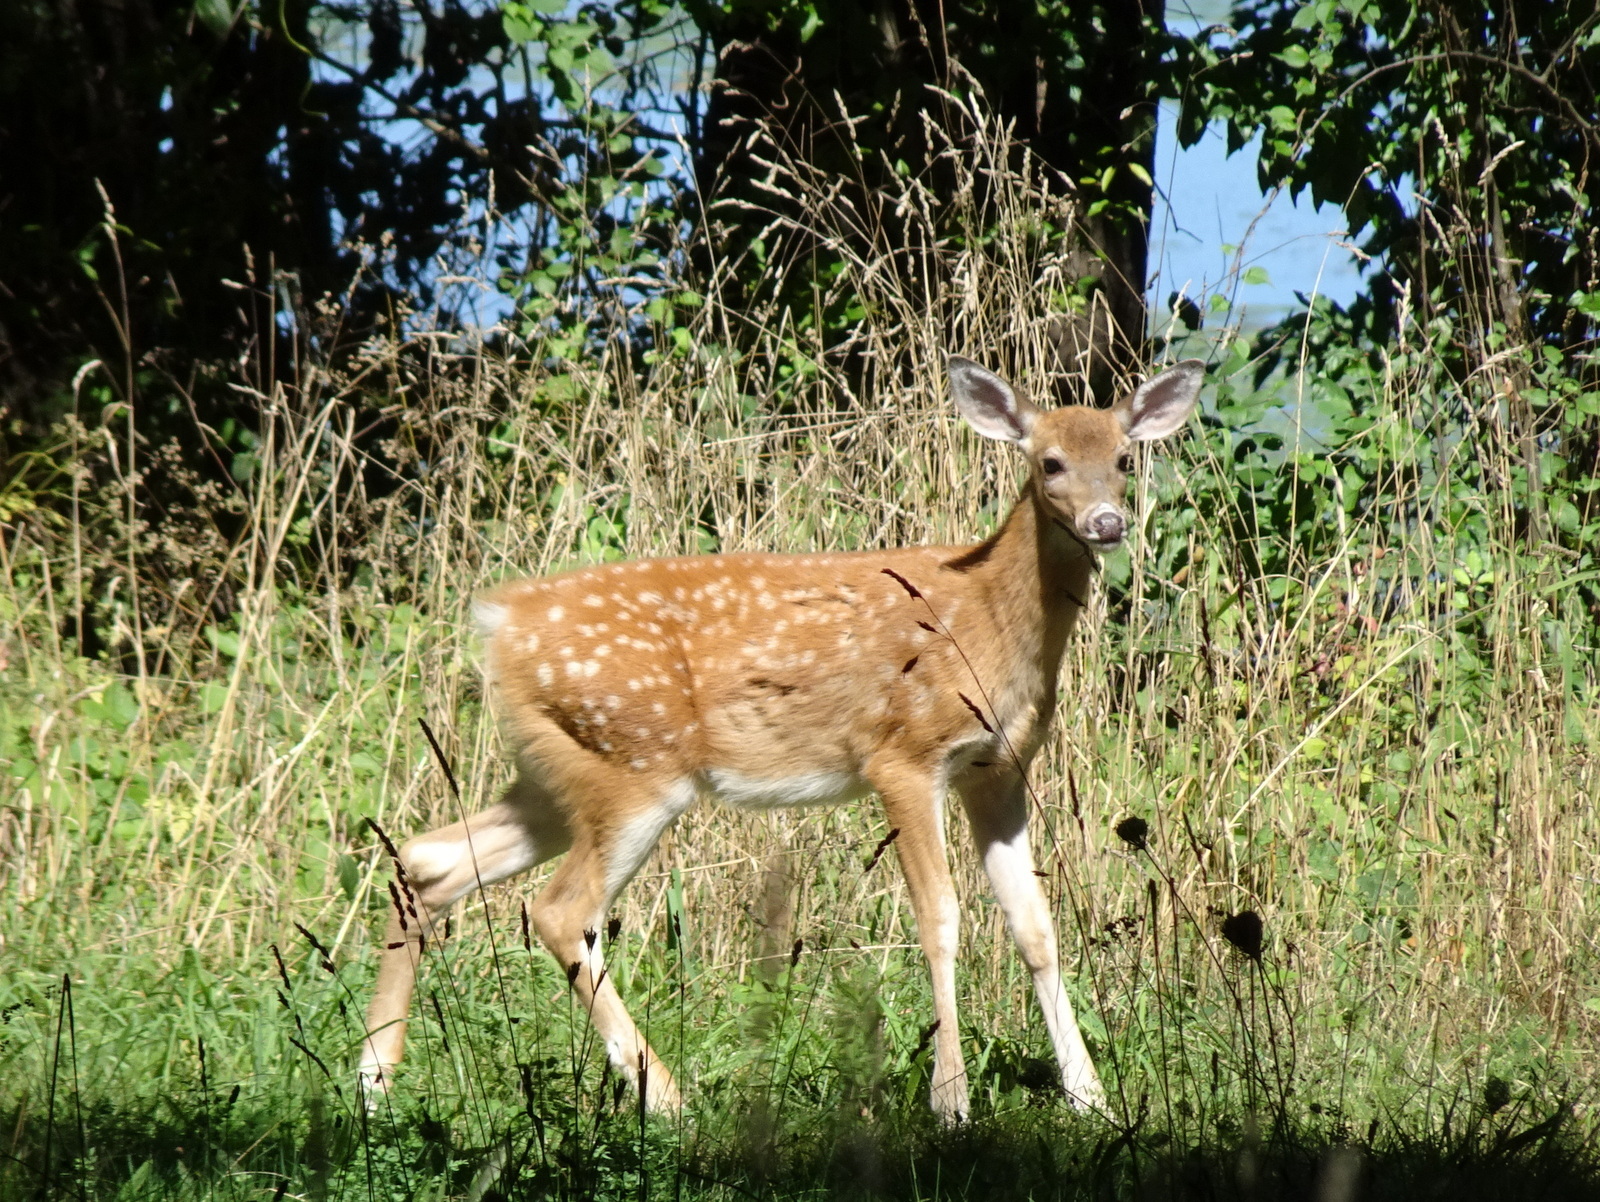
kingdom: Animalia
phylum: Chordata
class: Mammalia
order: Artiodactyla
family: Cervidae
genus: Odocoileus
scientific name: Odocoileus virginianus
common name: White-tailed deer
